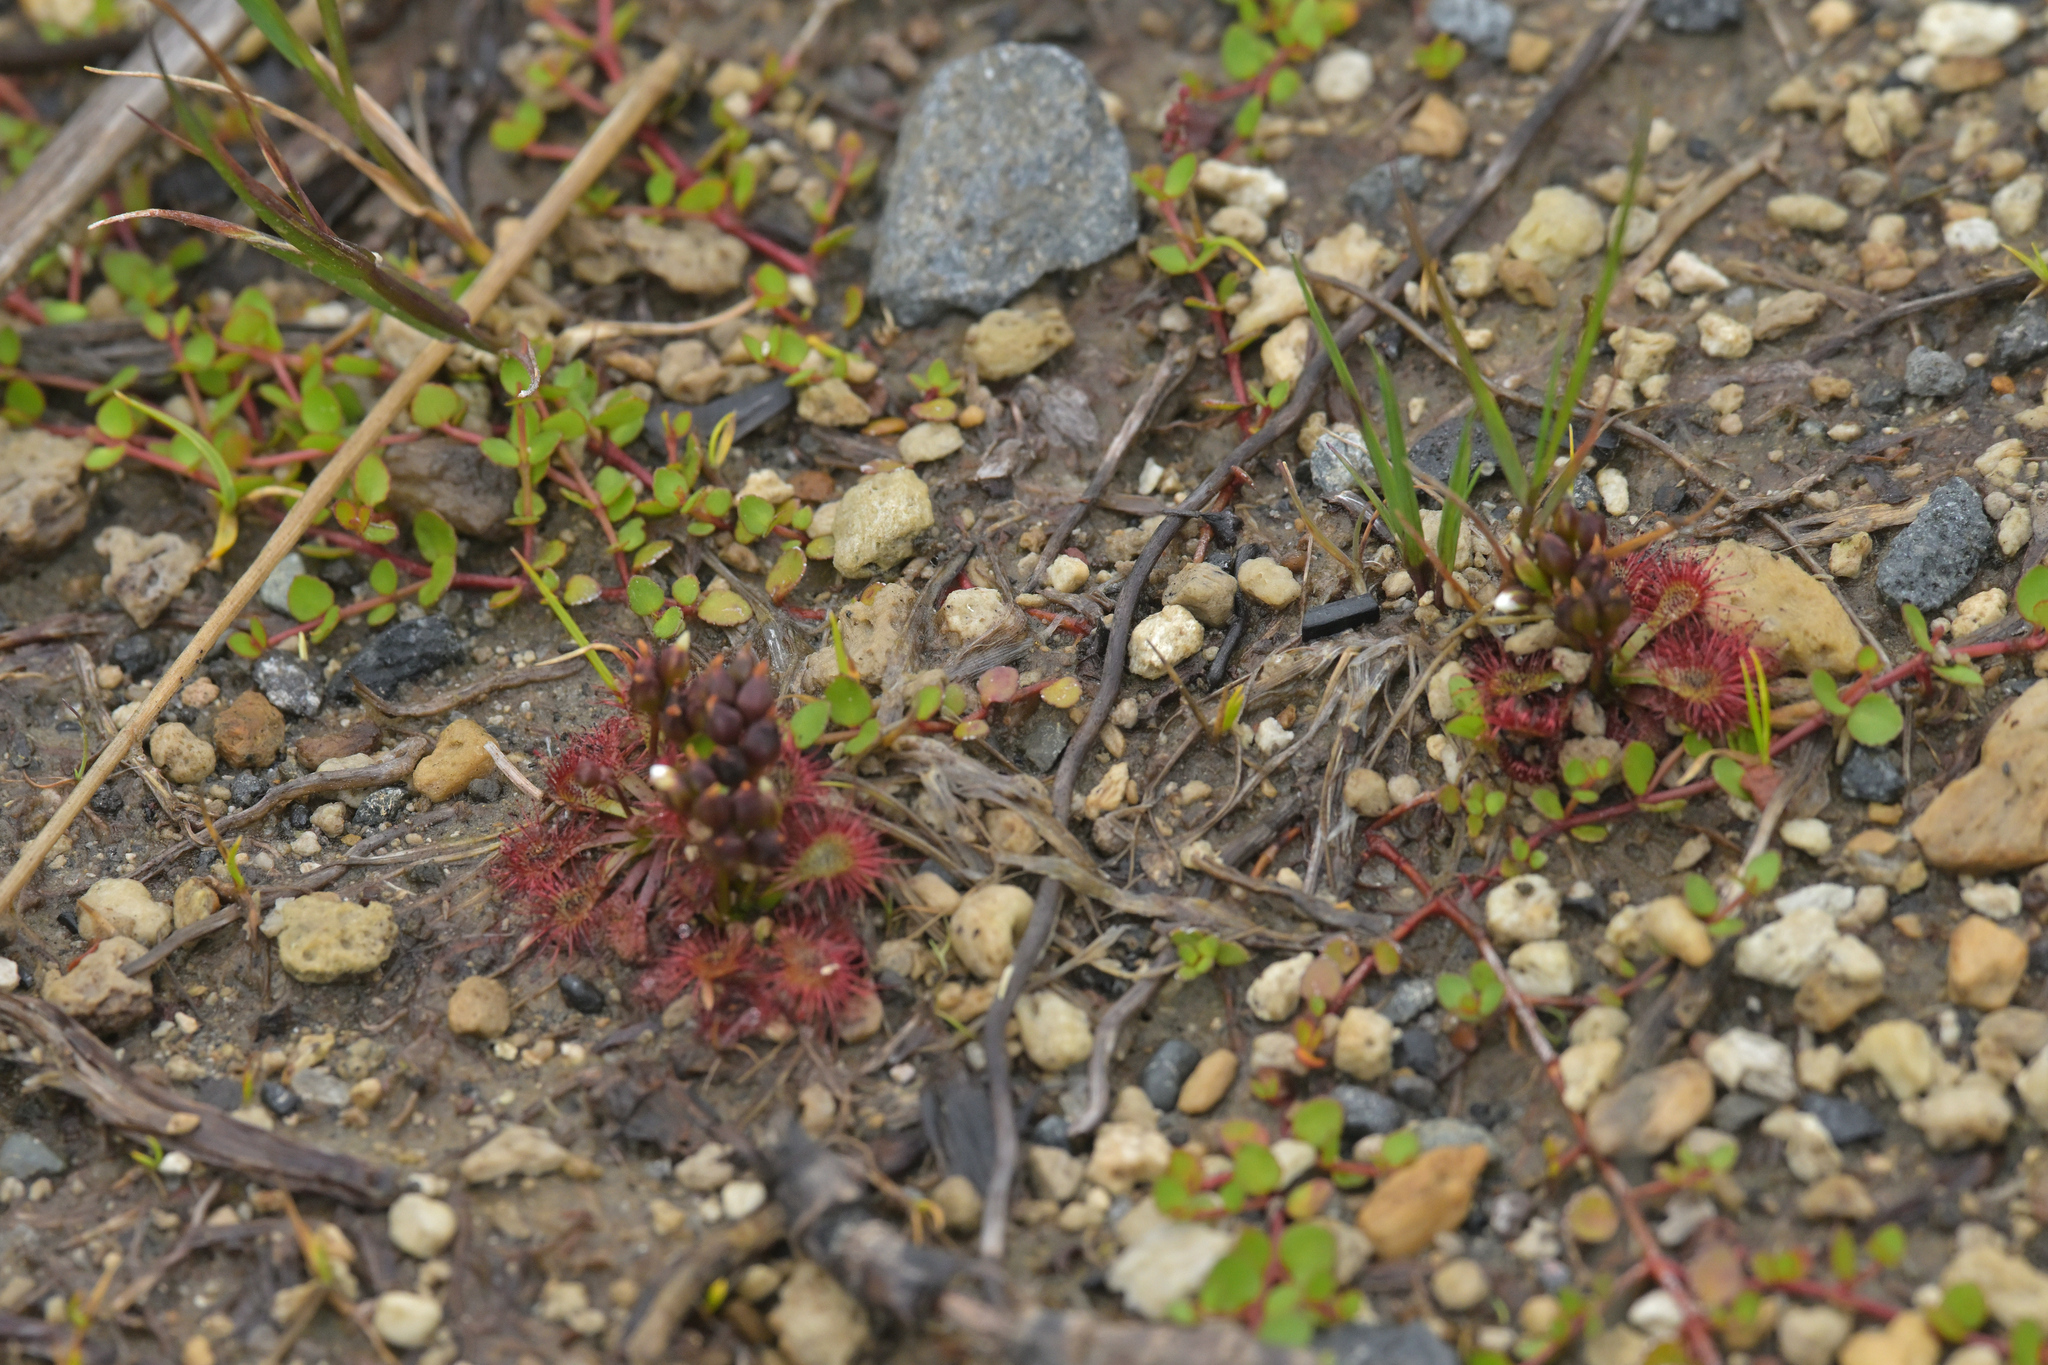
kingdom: Plantae
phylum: Tracheophyta
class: Magnoliopsida
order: Caryophyllales
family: Droseraceae
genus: Drosera
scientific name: Drosera spatulata
